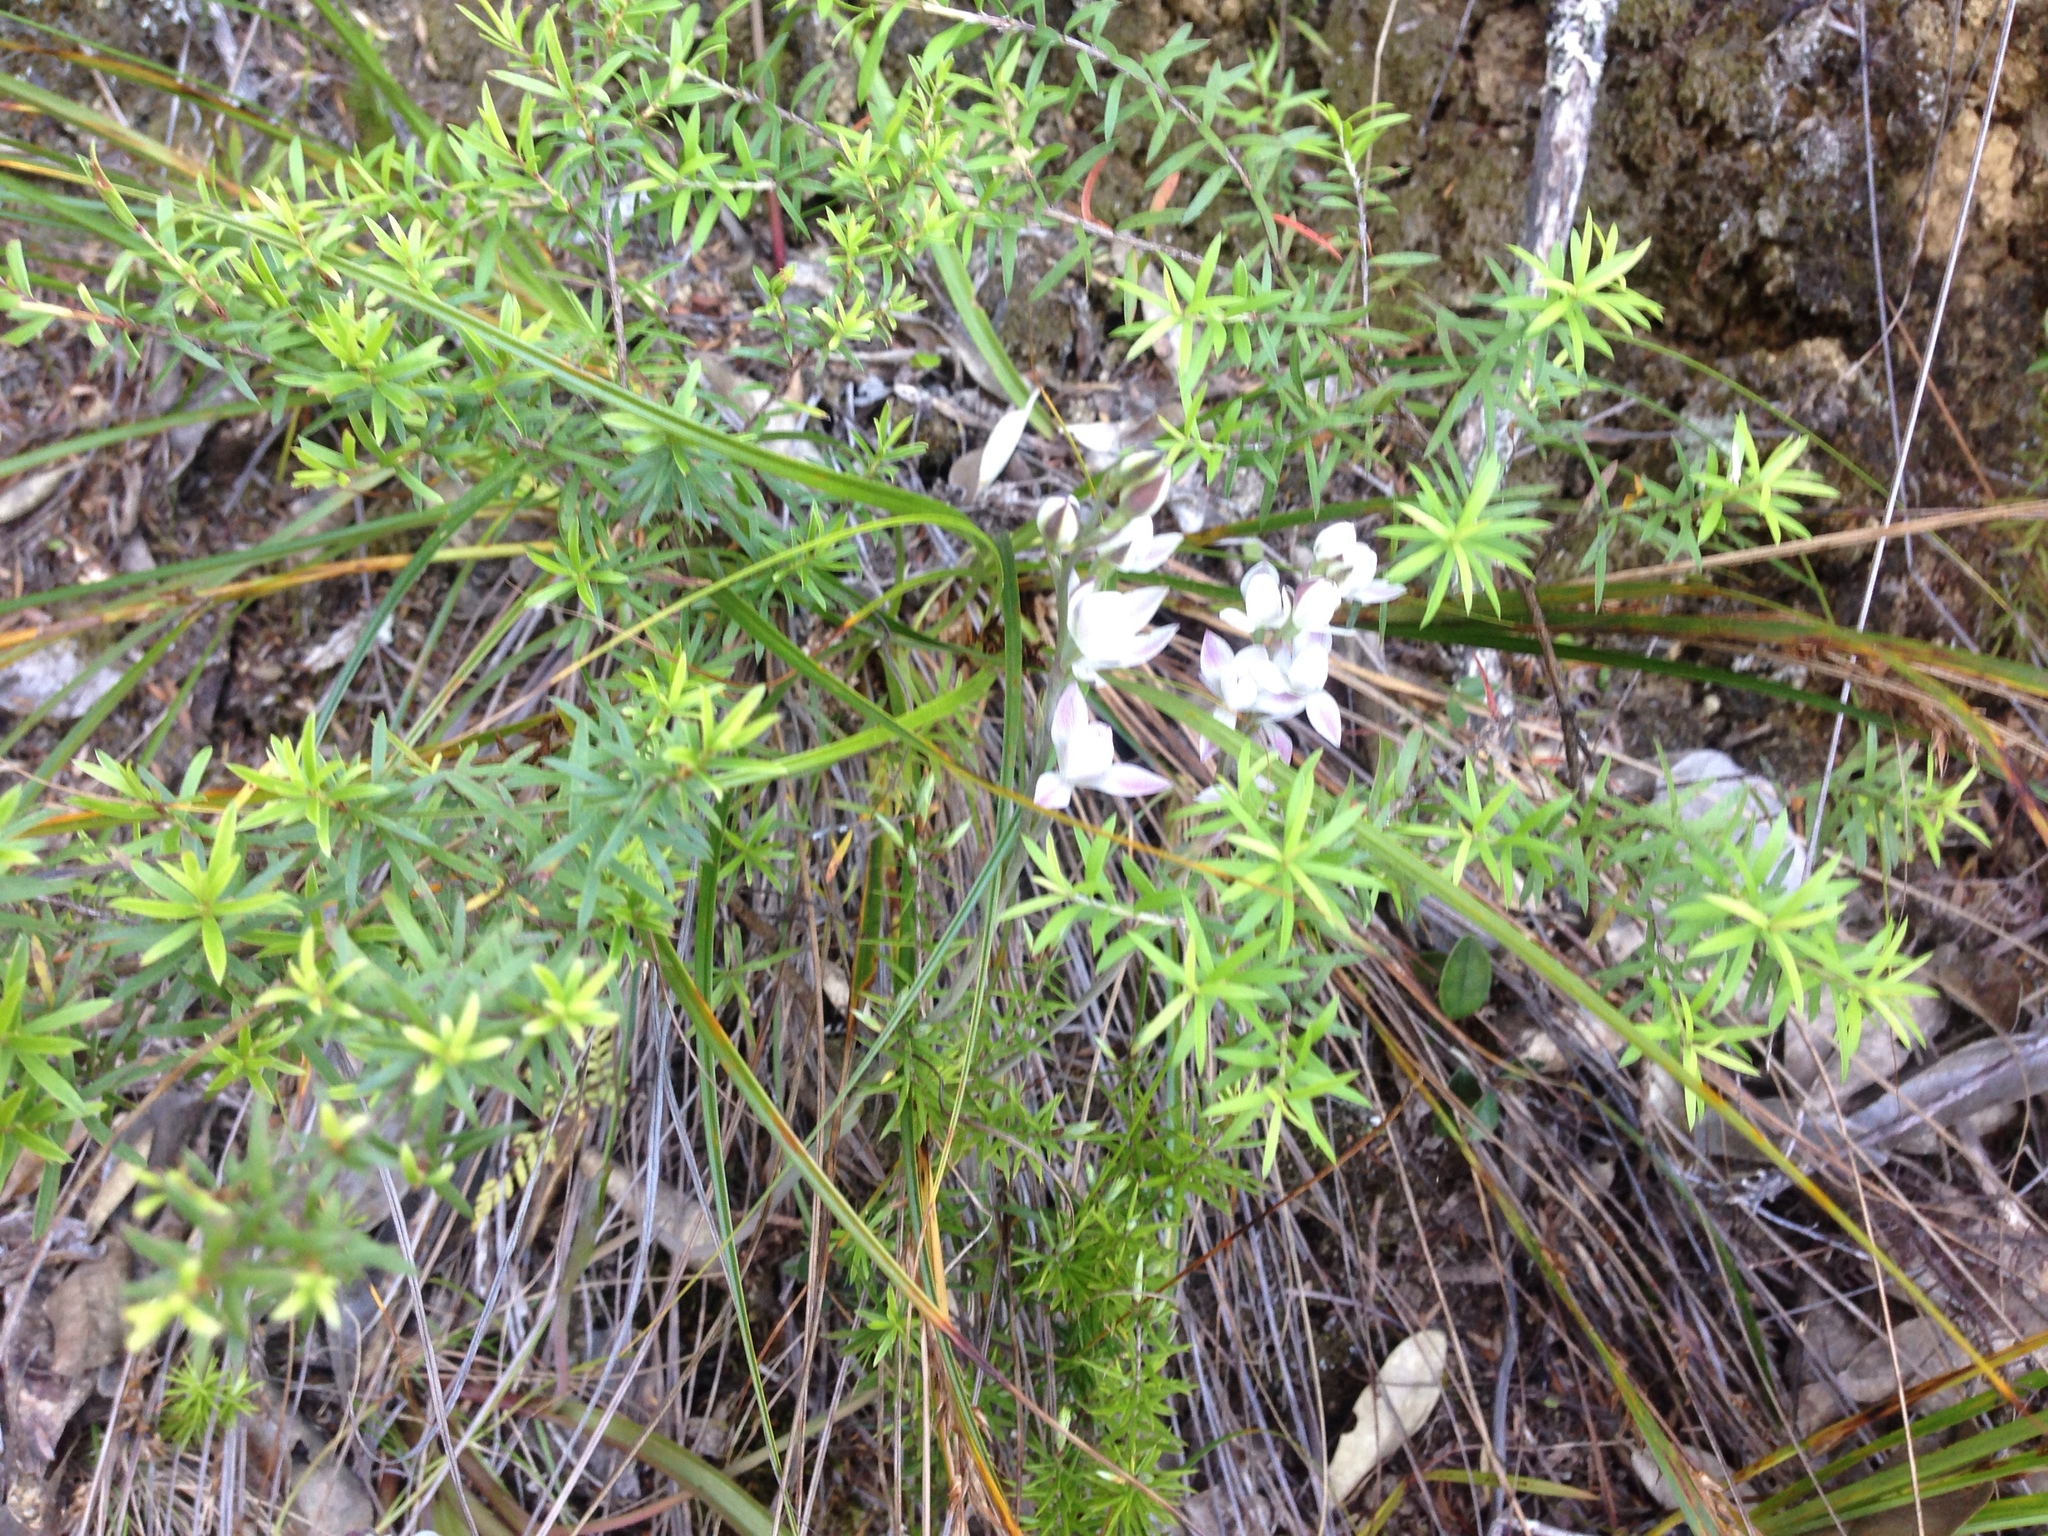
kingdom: Plantae
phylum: Tracheophyta
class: Liliopsida
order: Asparagales
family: Orchidaceae
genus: Thelymitra
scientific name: Thelymitra longifolia
